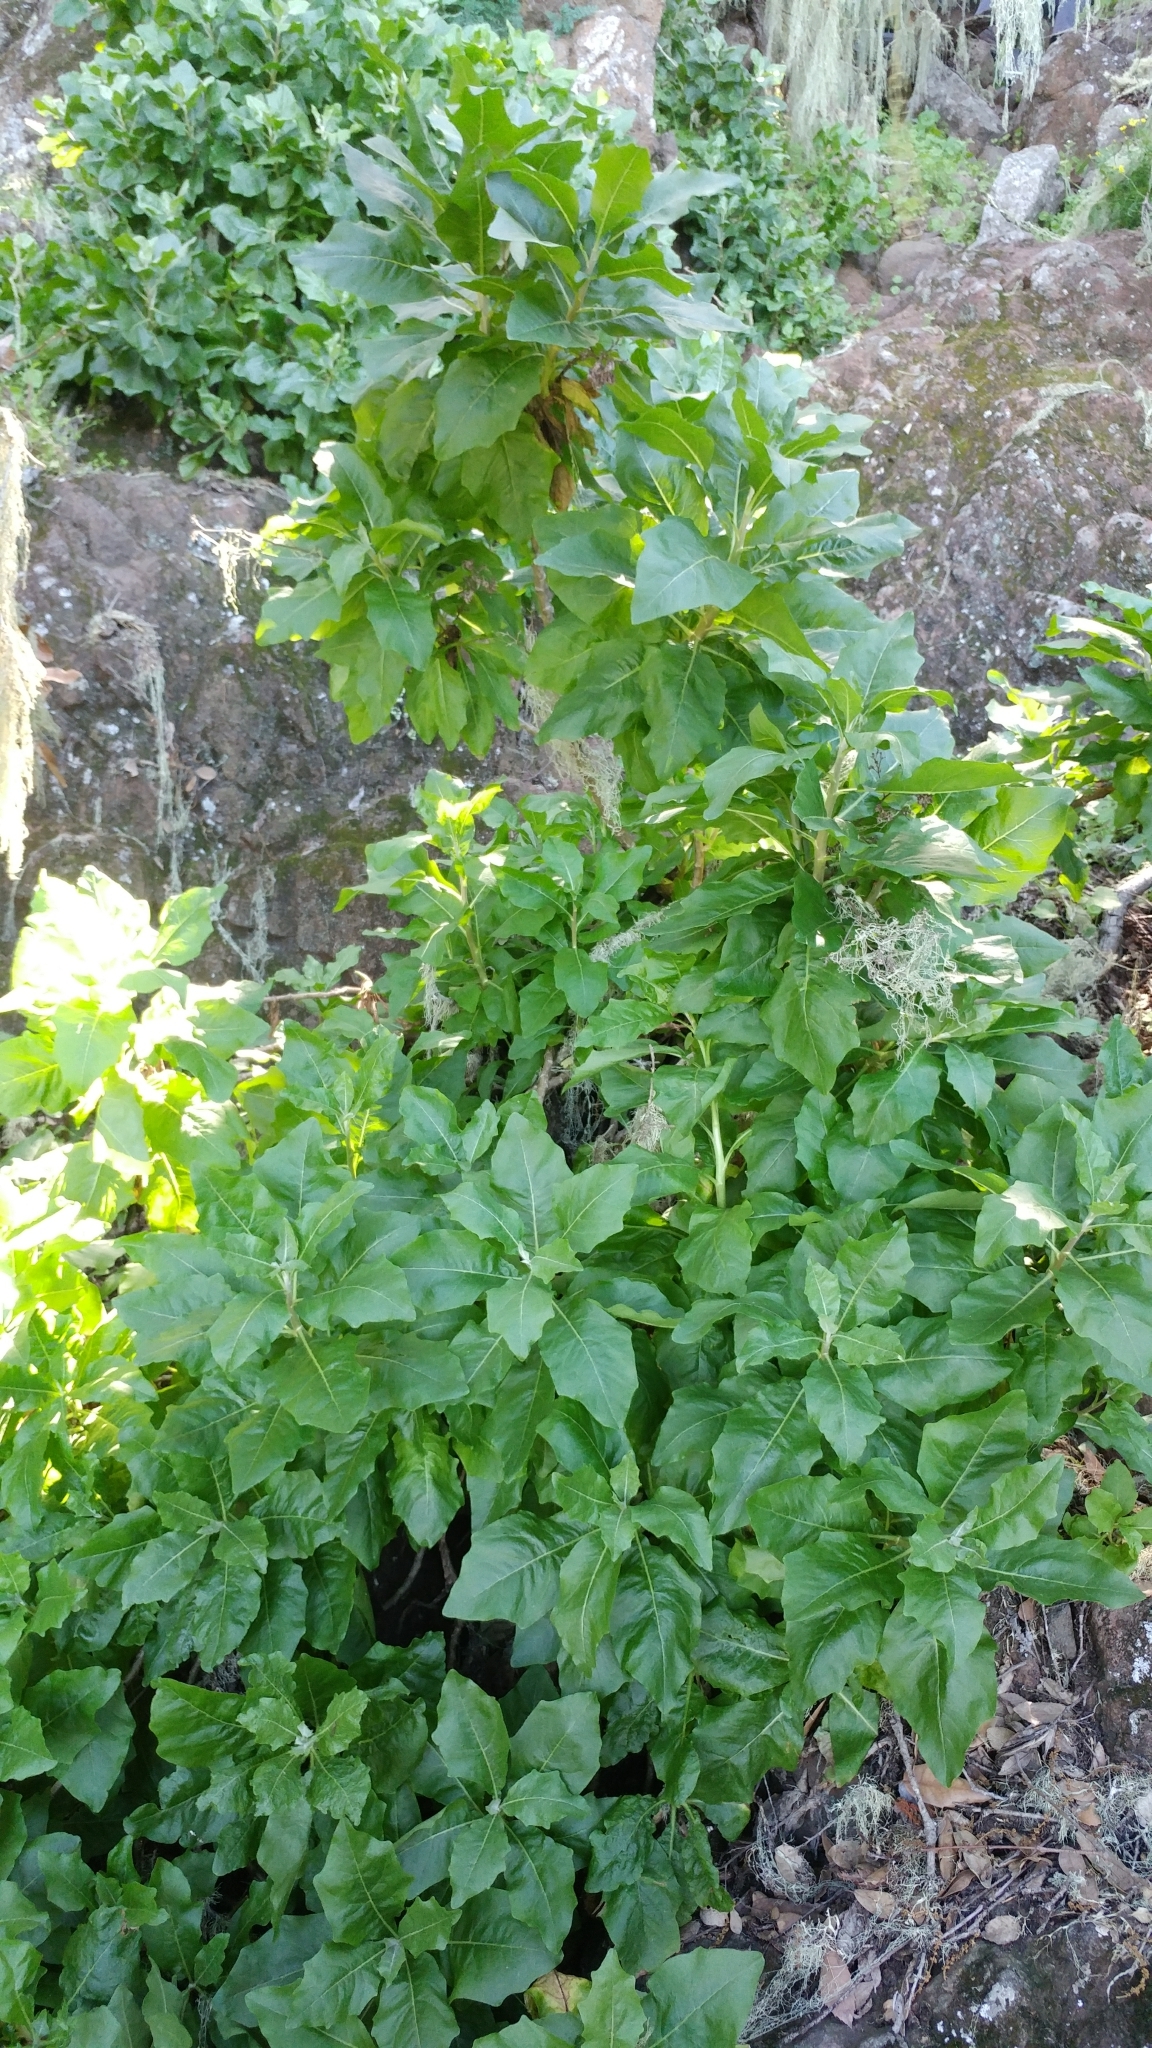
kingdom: Plantae
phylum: Tracheophyta
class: Magnoliopsida
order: Asterales
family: Asteraceae
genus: Munzothamnus
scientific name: Munzothamnus blairii
